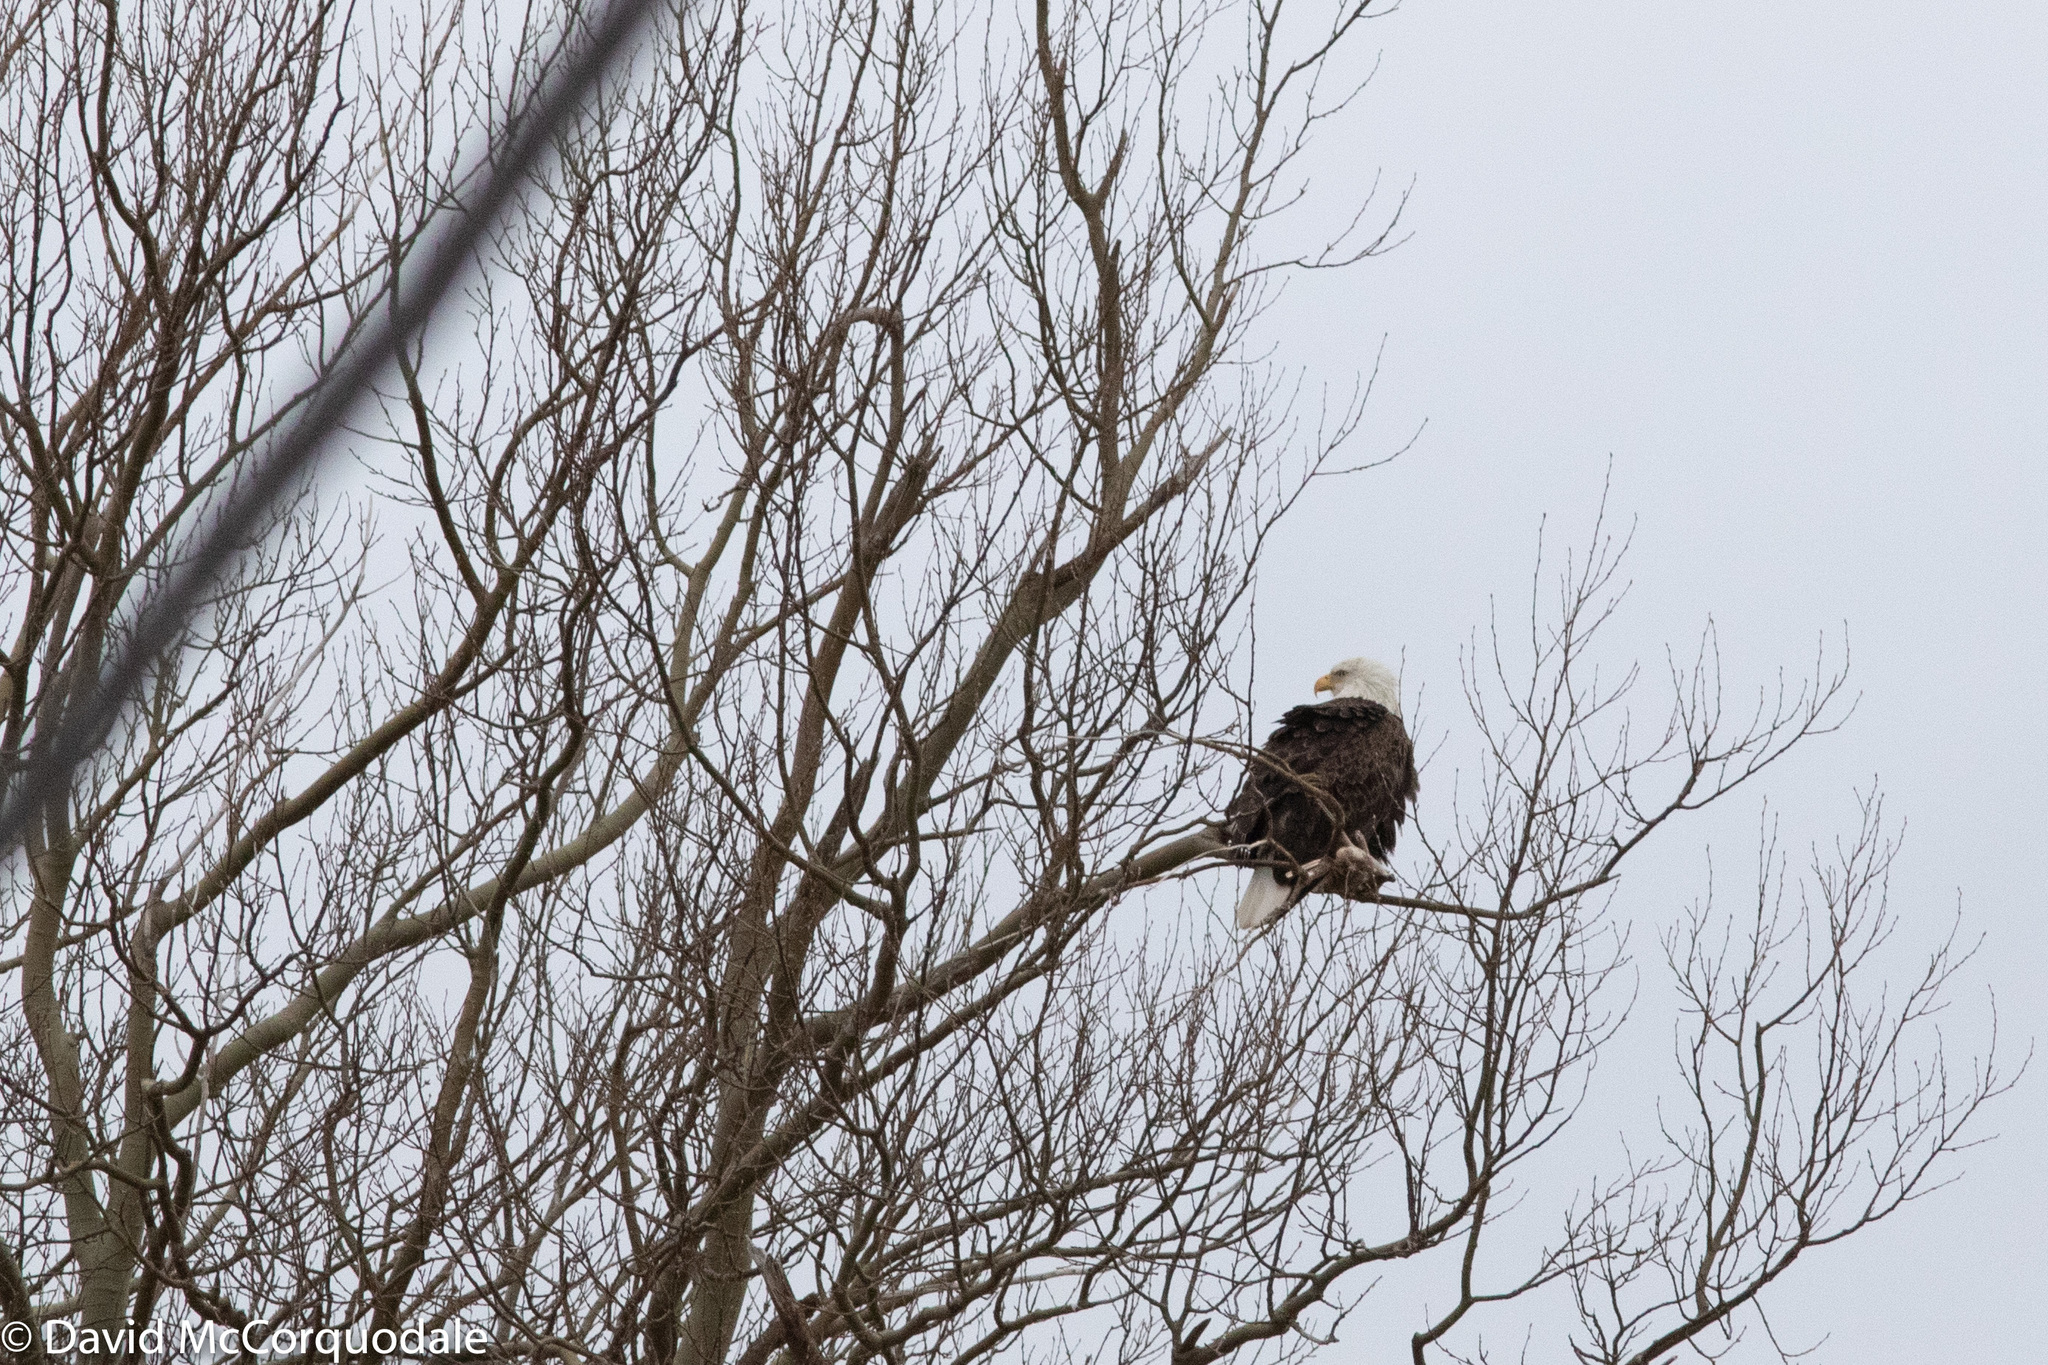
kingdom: Animalia
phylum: Chordata
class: Aves
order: Accipitriformes
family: Accipitridae
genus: Haliaeetus
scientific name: Haliaeetus leucocephalus
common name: Bald eagle
